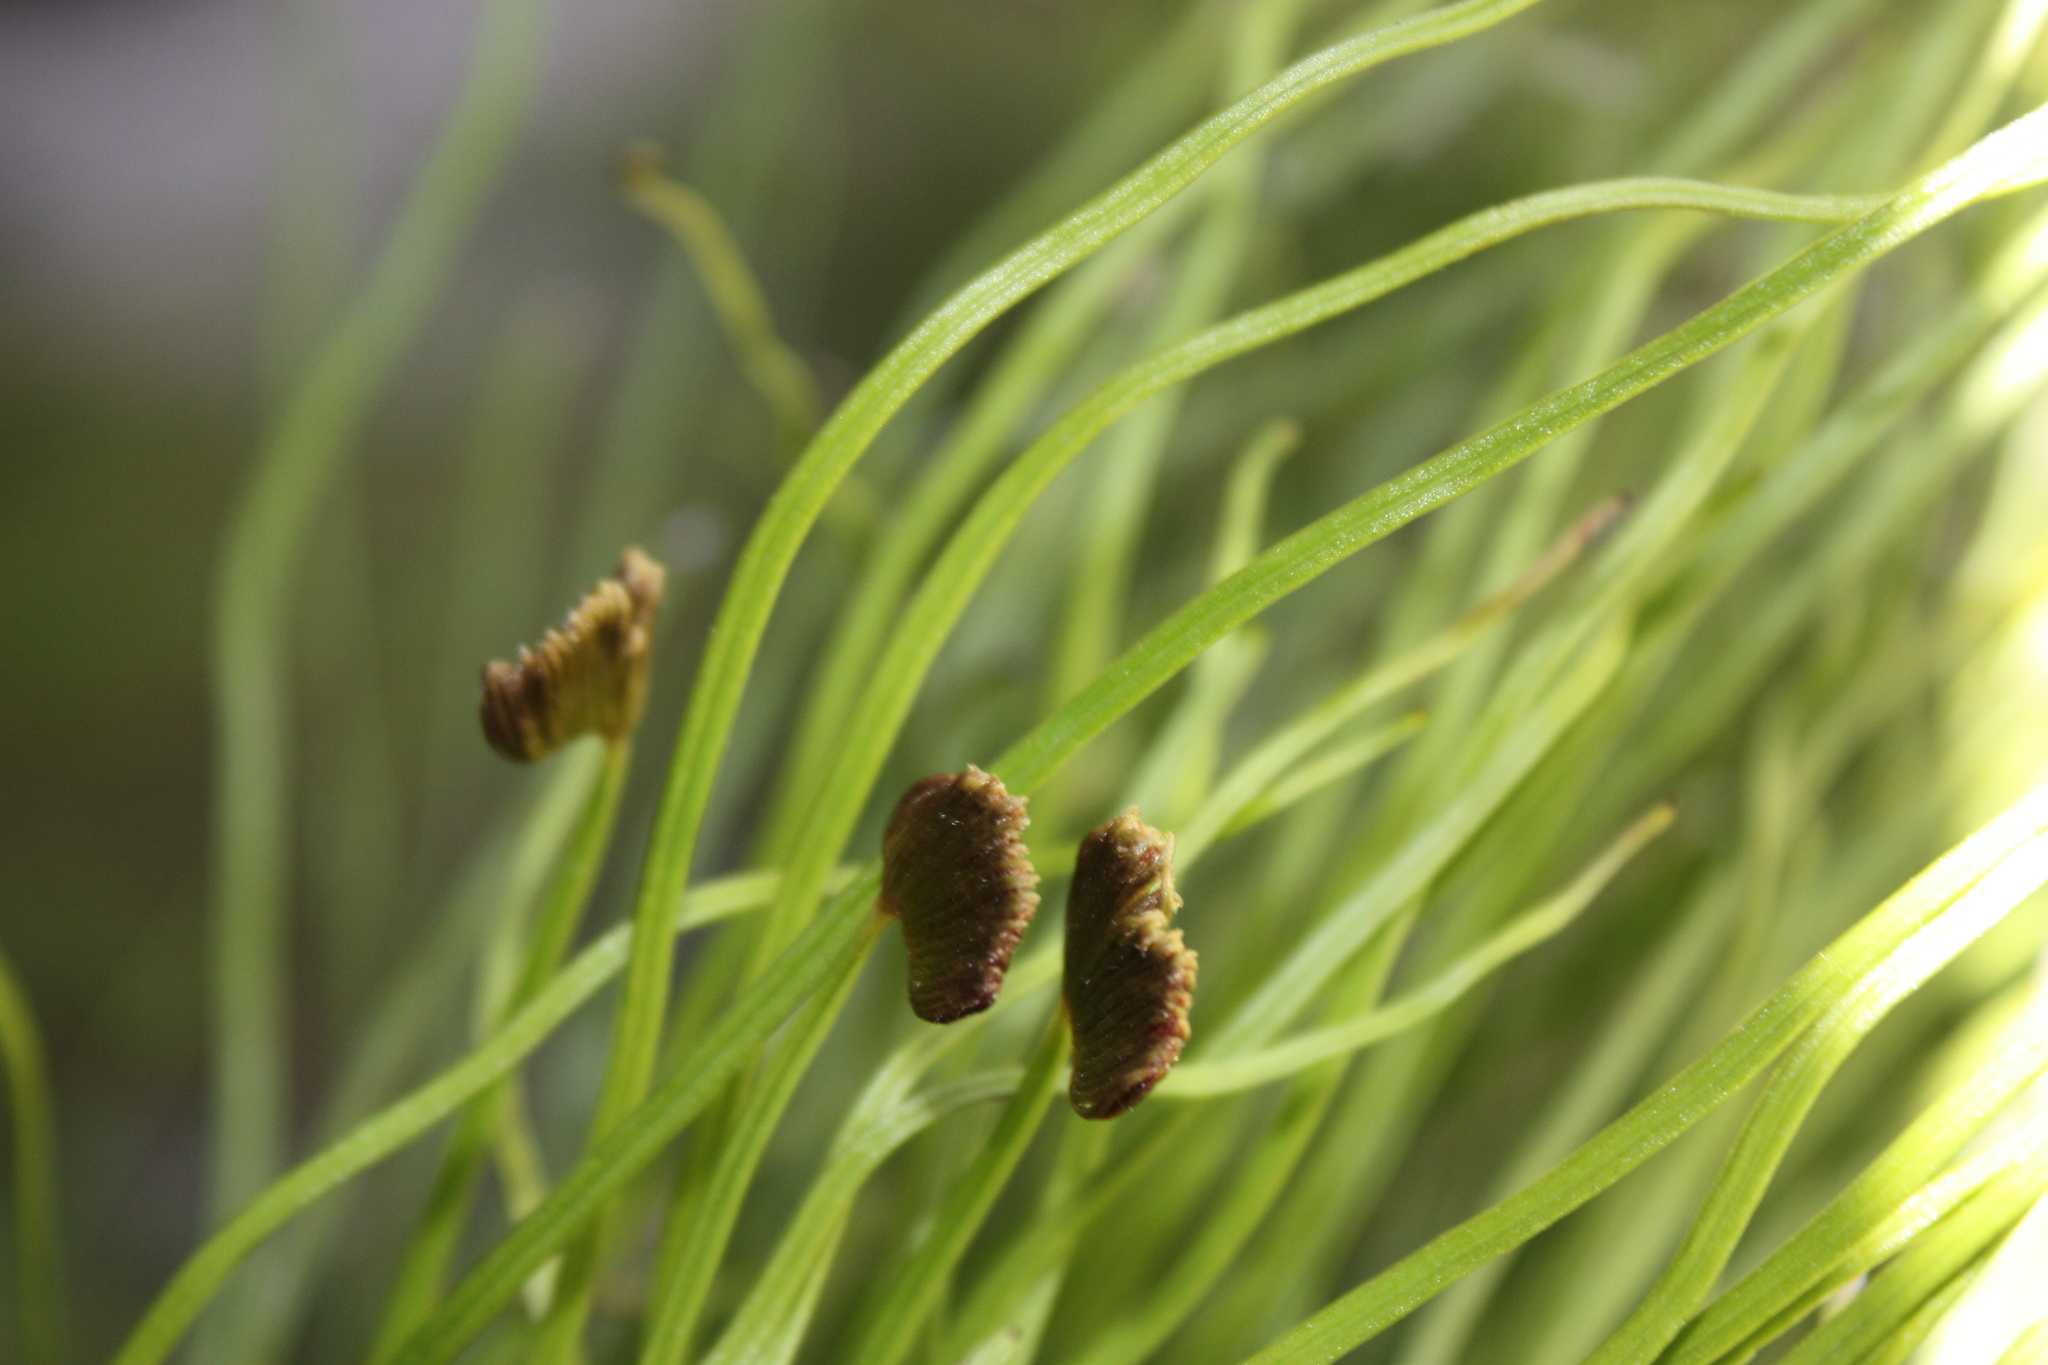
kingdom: Plantae
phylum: Tracheophyta
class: Polypodiopsida
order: Schizaeales
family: Schizaeaceae
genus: Schizaea
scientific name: Schizaea pectinata
